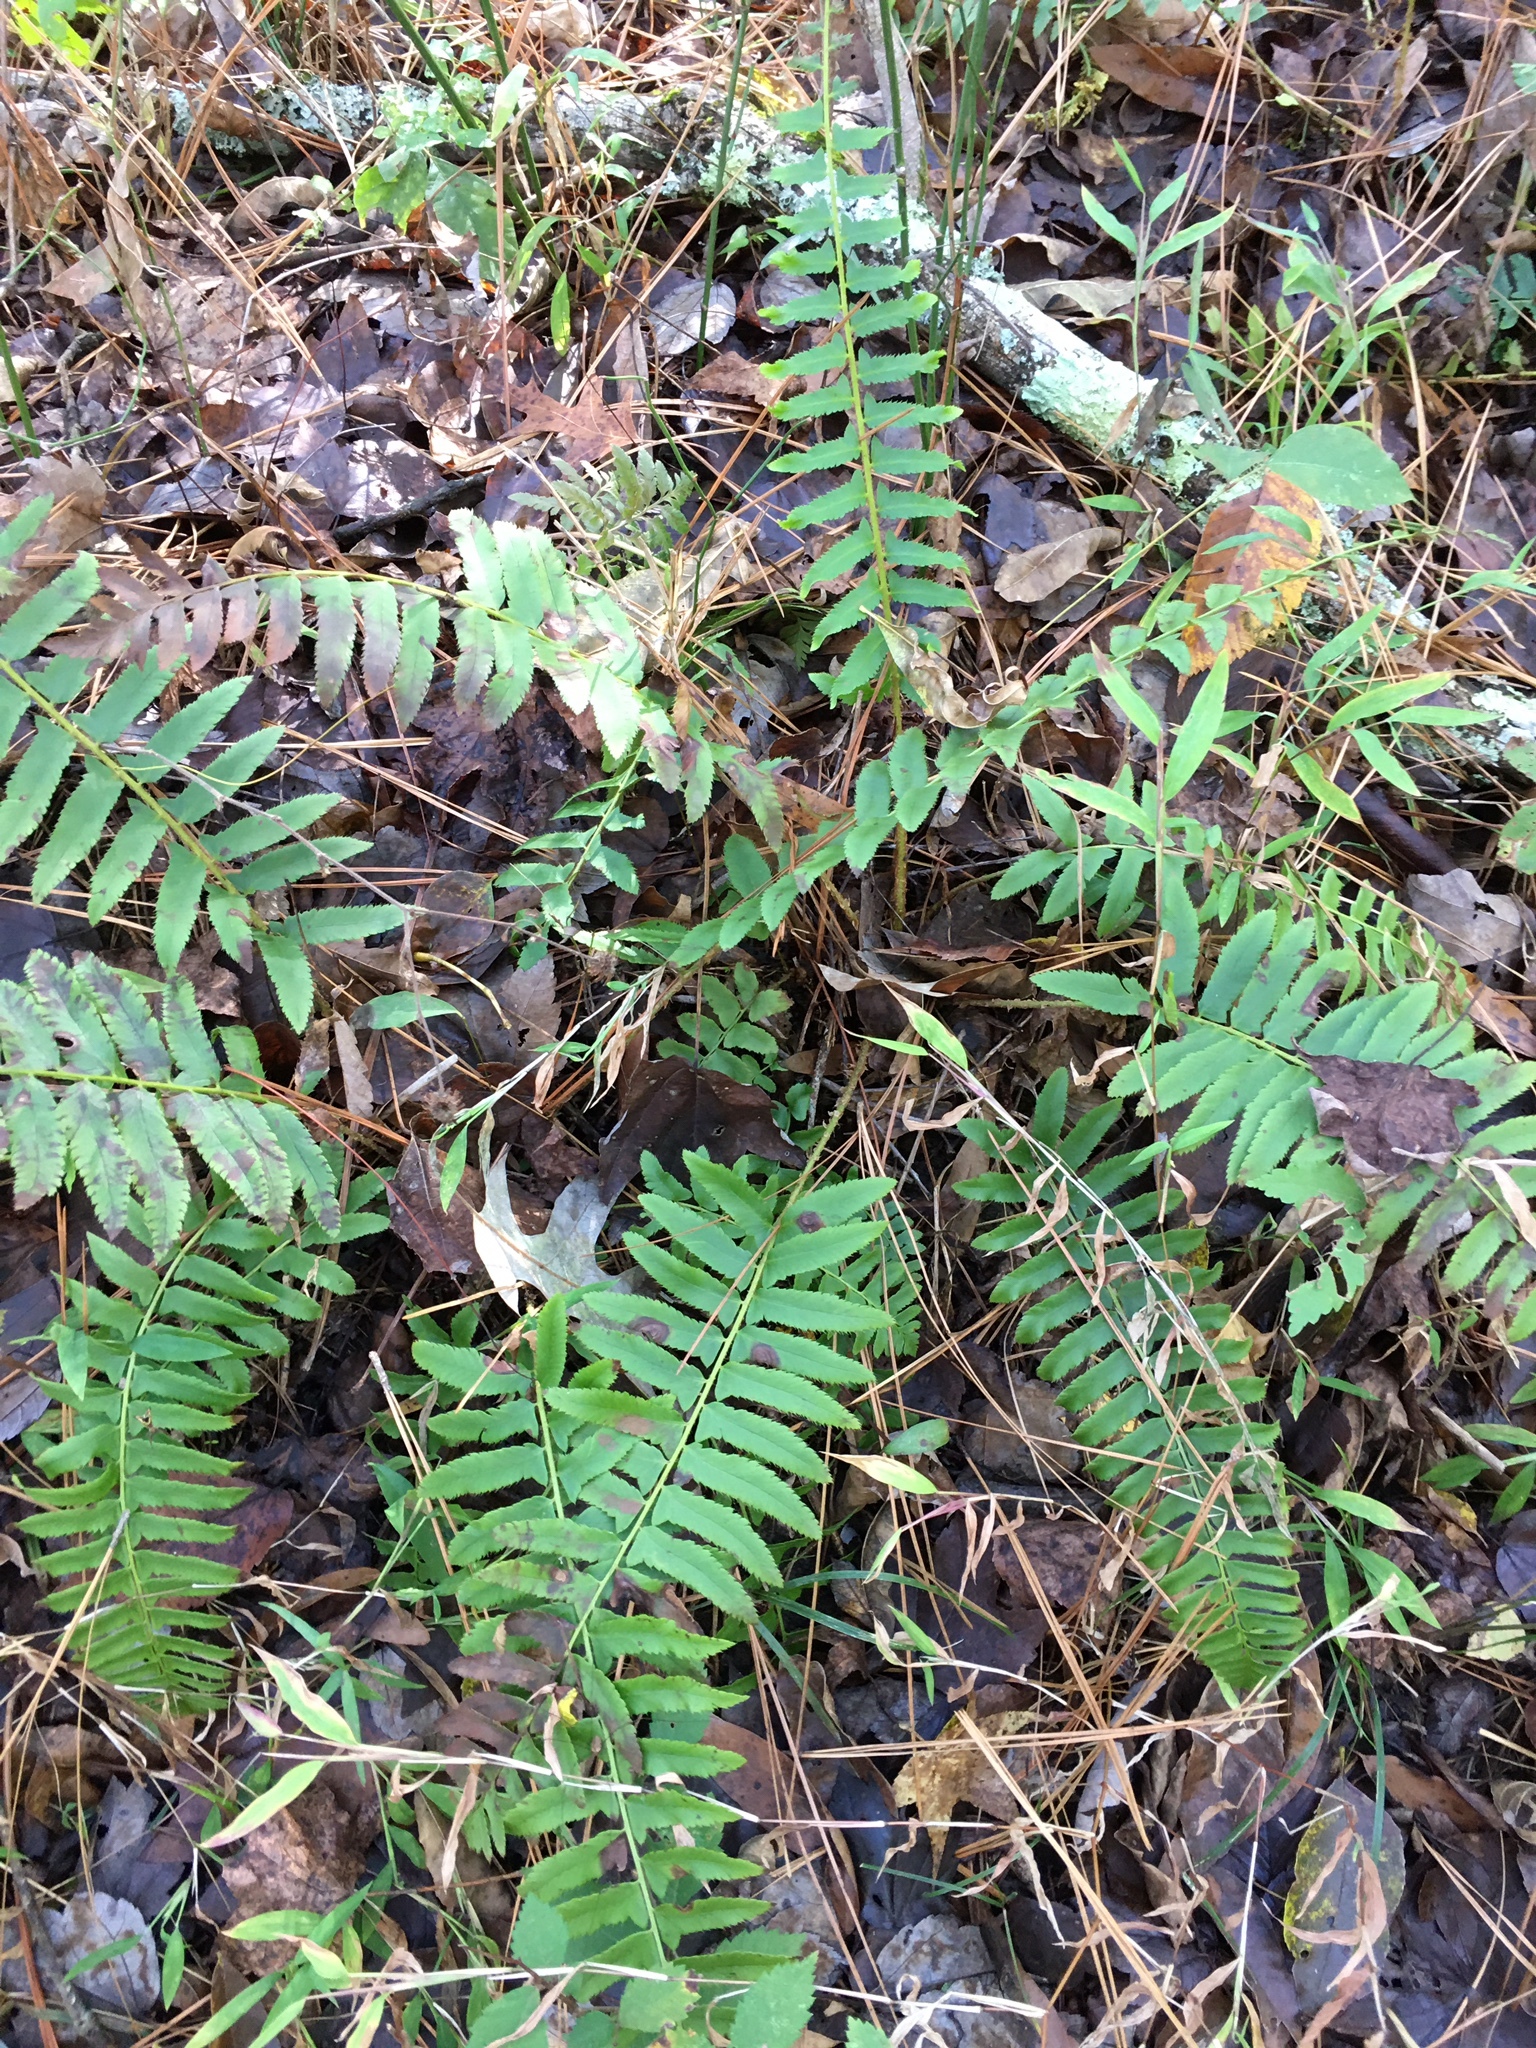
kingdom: Plantae
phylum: Tracheophyta
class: Polypodiopsida
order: Polypodiales
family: Dryopteridaceae
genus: Polystichum
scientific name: Polystichum acrostichoides
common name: Christmas fern
